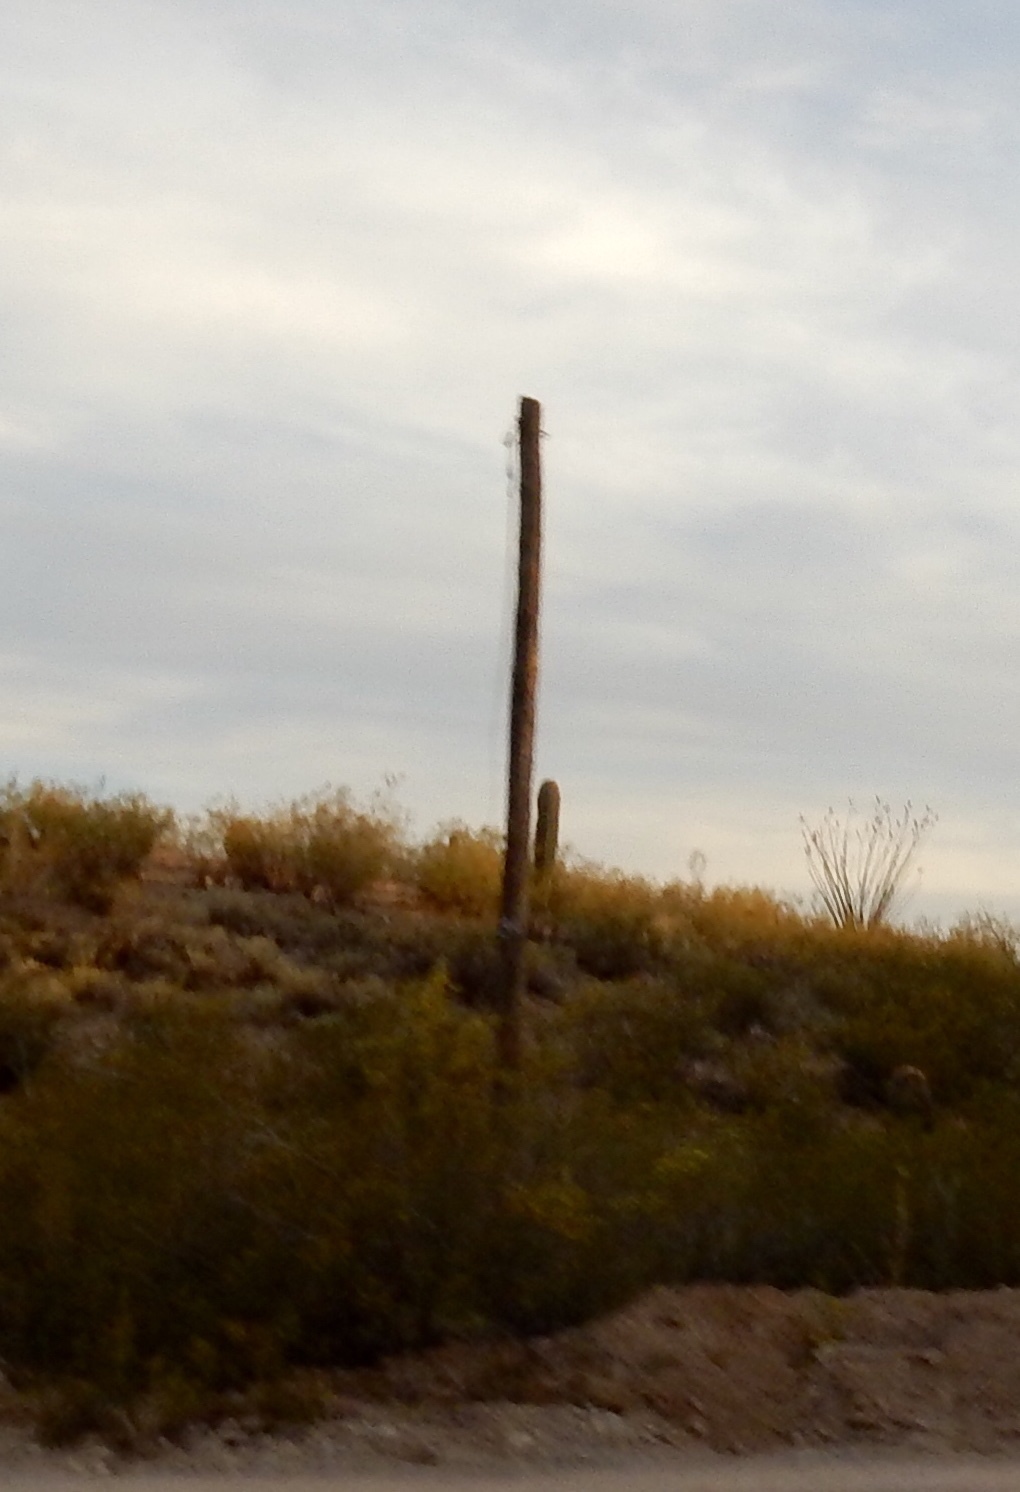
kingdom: Plantae
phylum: Tracheophyta
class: Magnoliopsida
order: Caryophyllales
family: Cactaceae
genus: Carnegiea
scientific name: Carnegiea gigantea
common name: Saguaro
